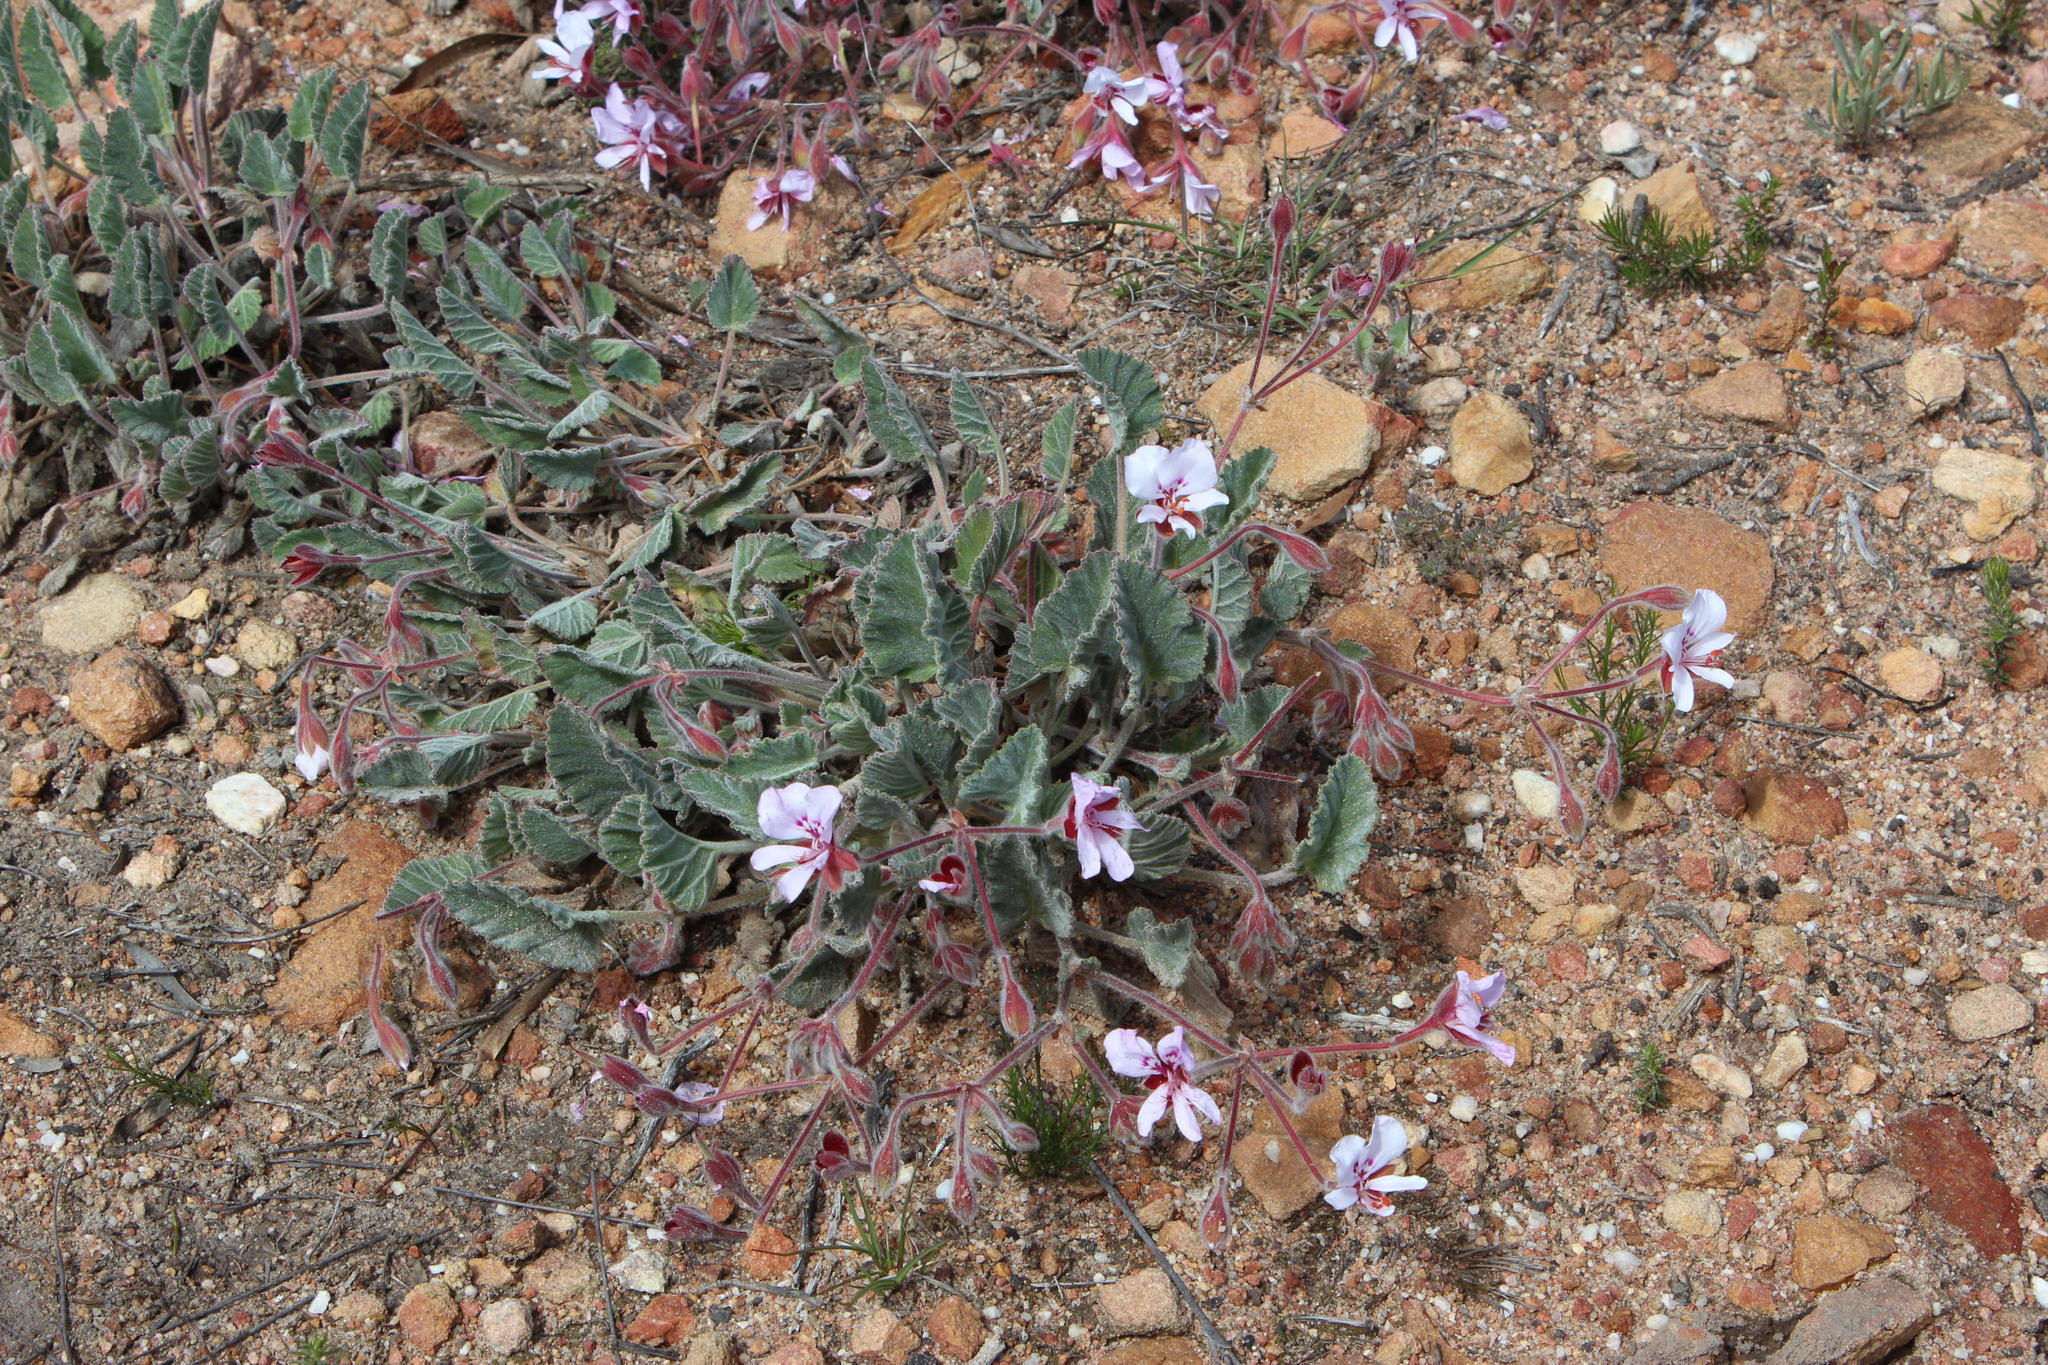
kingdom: Plantae
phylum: Tracheophyta
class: Magnoliopsida
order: Geraniales
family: Geraniaceae
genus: Pelargonium
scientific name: Pelargonium ovale
